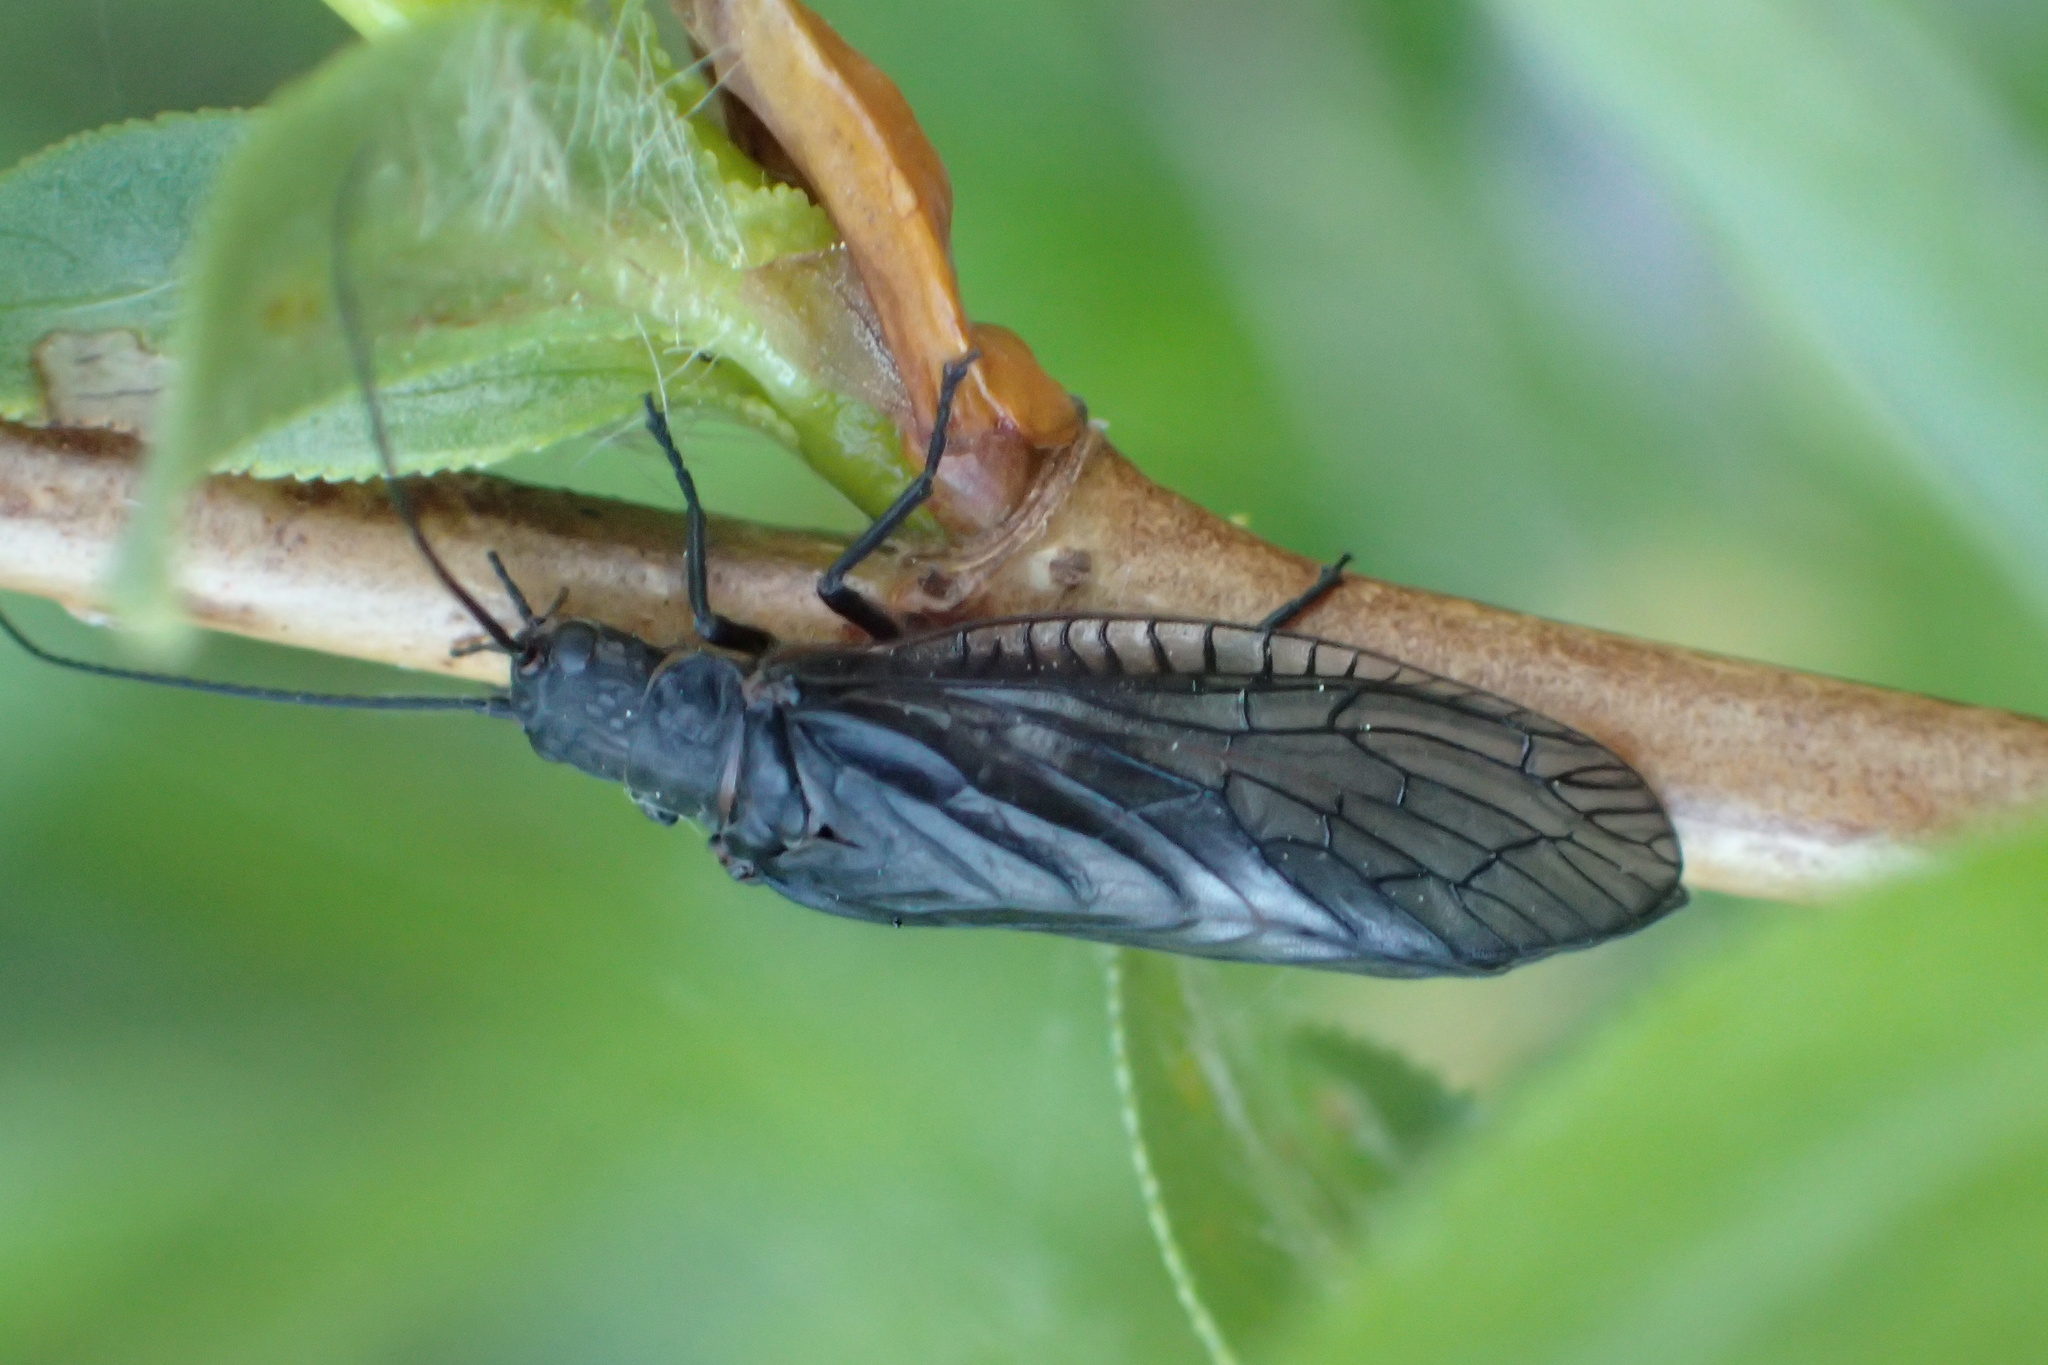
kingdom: Animalia
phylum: Arthropoda
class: Insecta
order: Megaloptera
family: Sialidae
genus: Sialis
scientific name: Sialis
